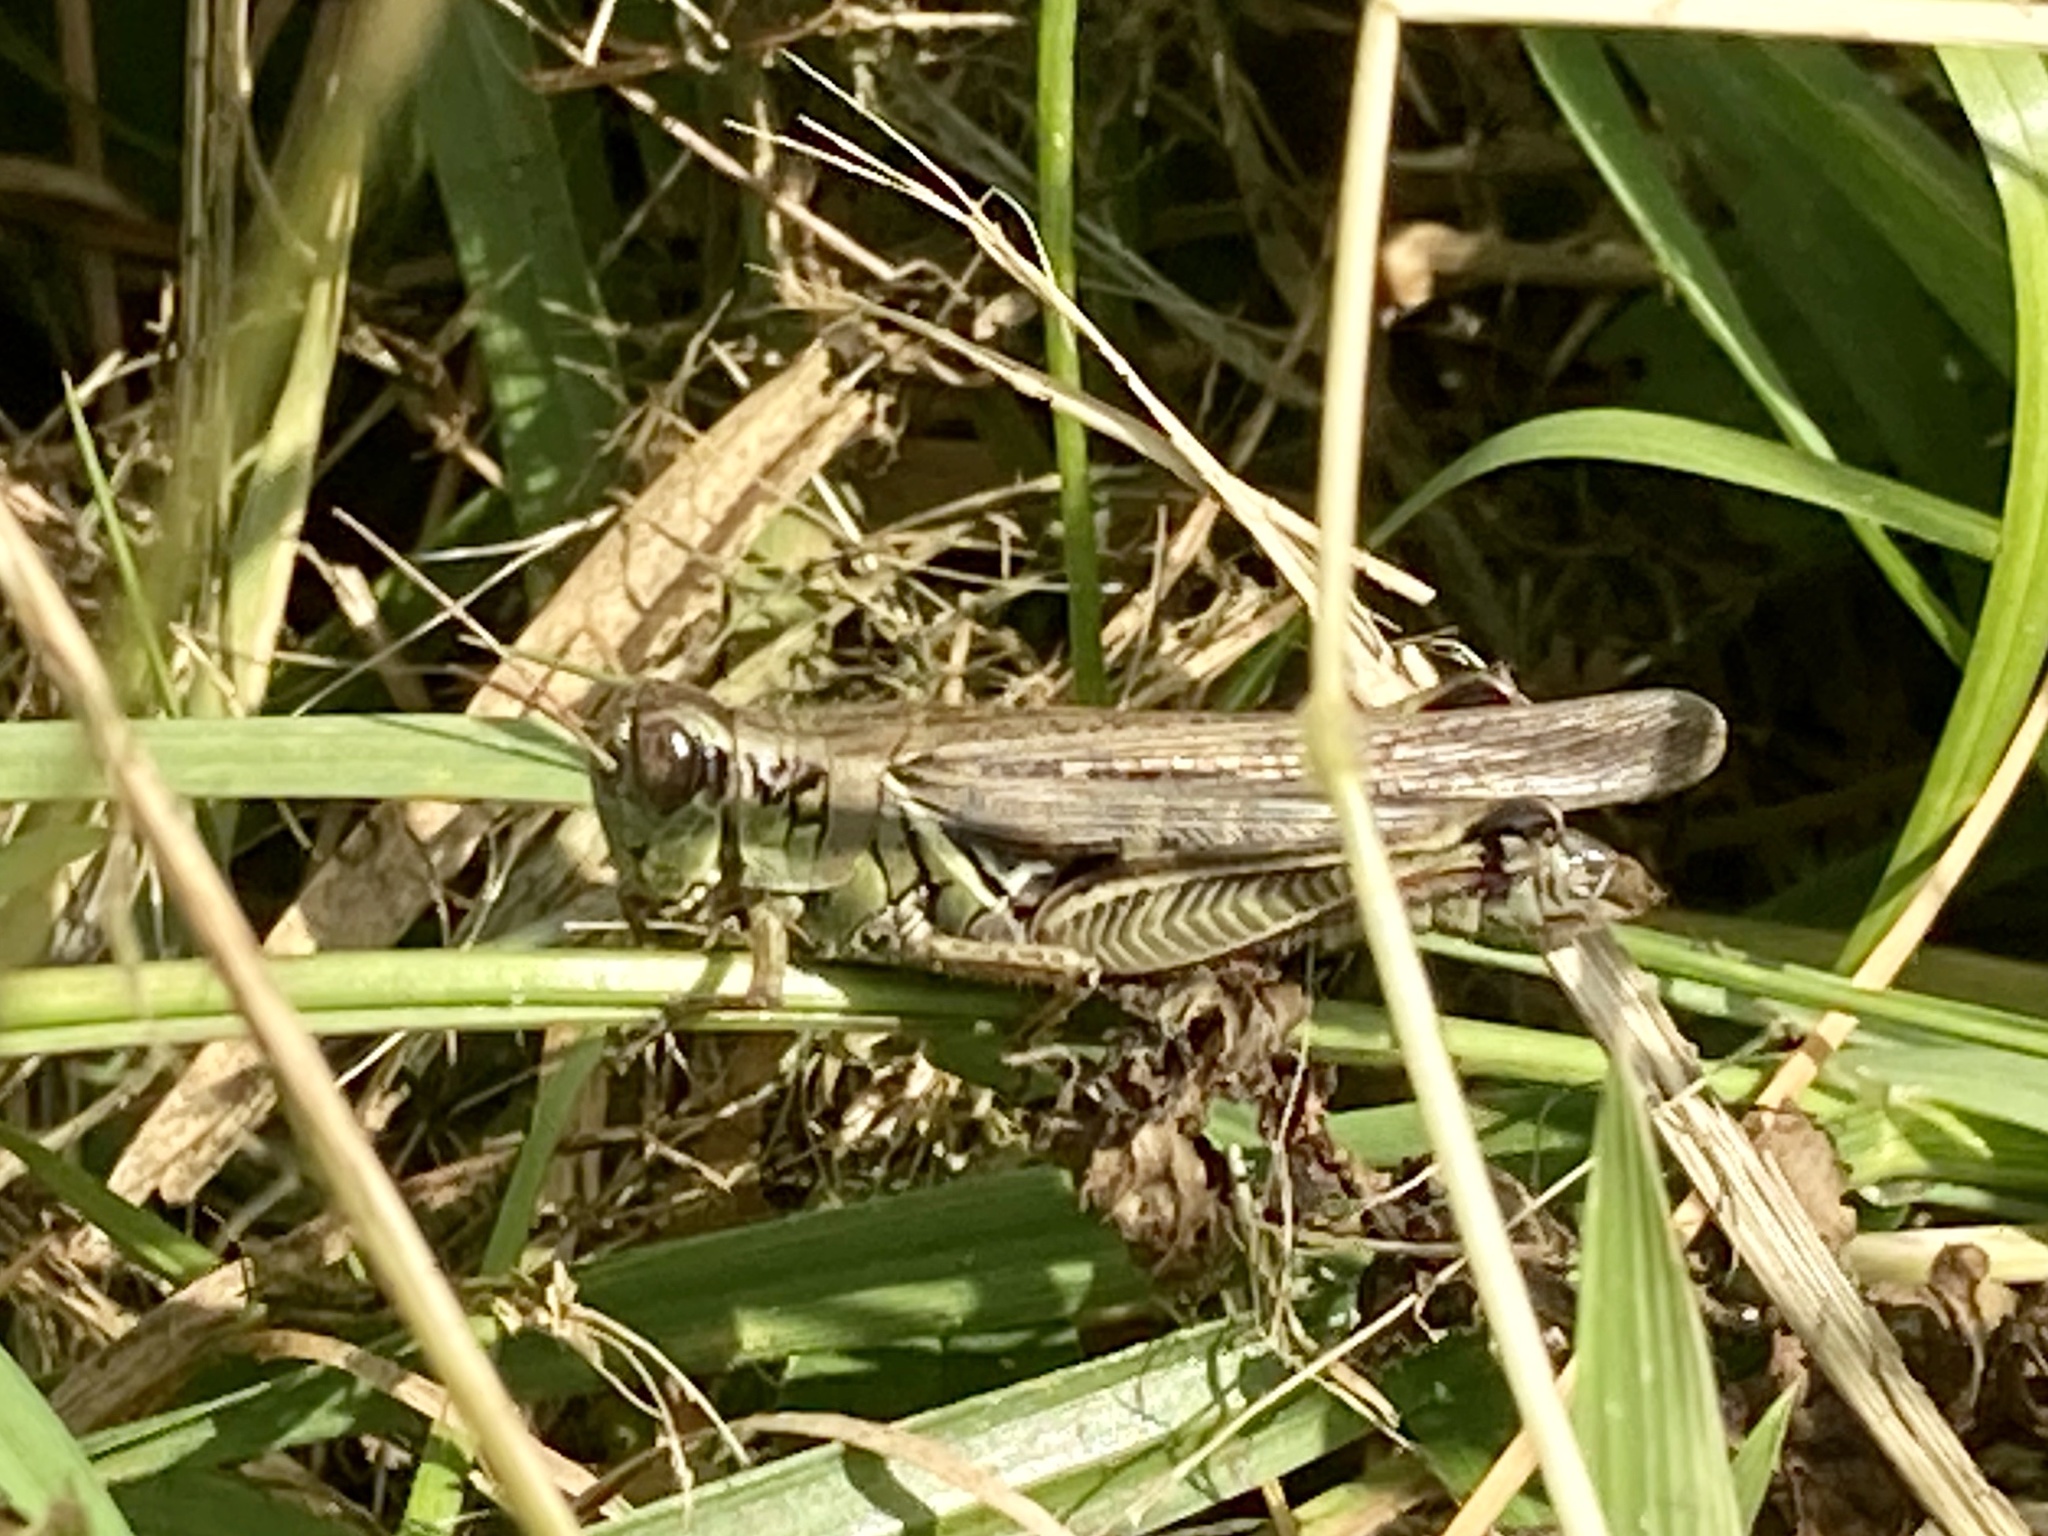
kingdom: Animalia
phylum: Arthropoda
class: Insecta
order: Orthoptera
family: Acrididae
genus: Melanoplus
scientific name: Melanoplus femurrubrum
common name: Red-legged grasshopper
